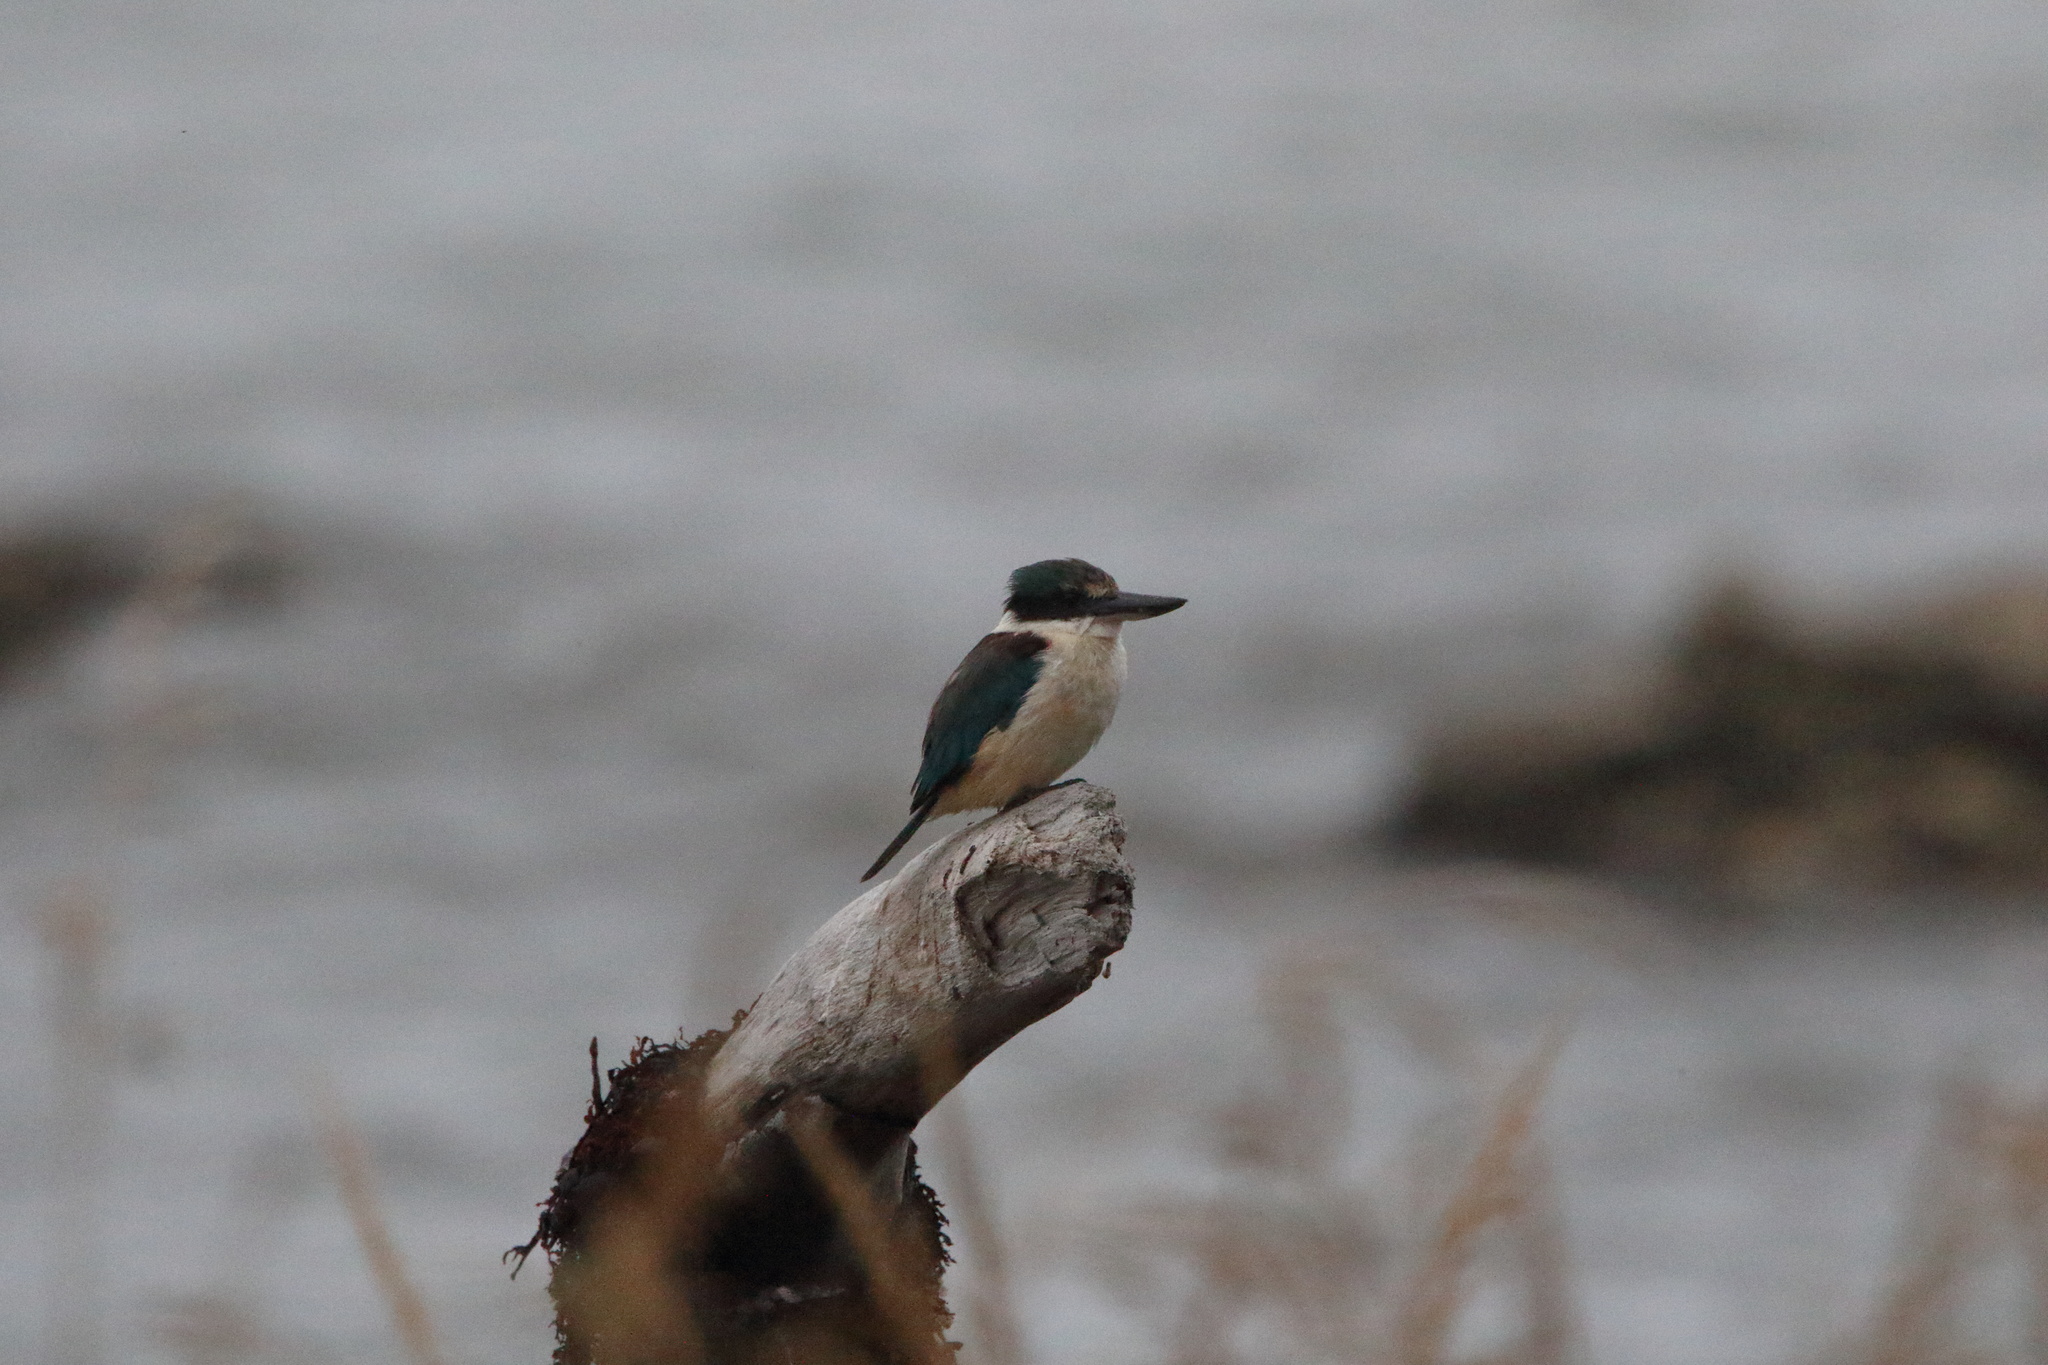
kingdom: Animalia
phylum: Chordata
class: Aves
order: Coraciiformes
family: Alcedinidae
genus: Todiramphus
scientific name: Todiramphus sanctus
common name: Sacred kingfisher
